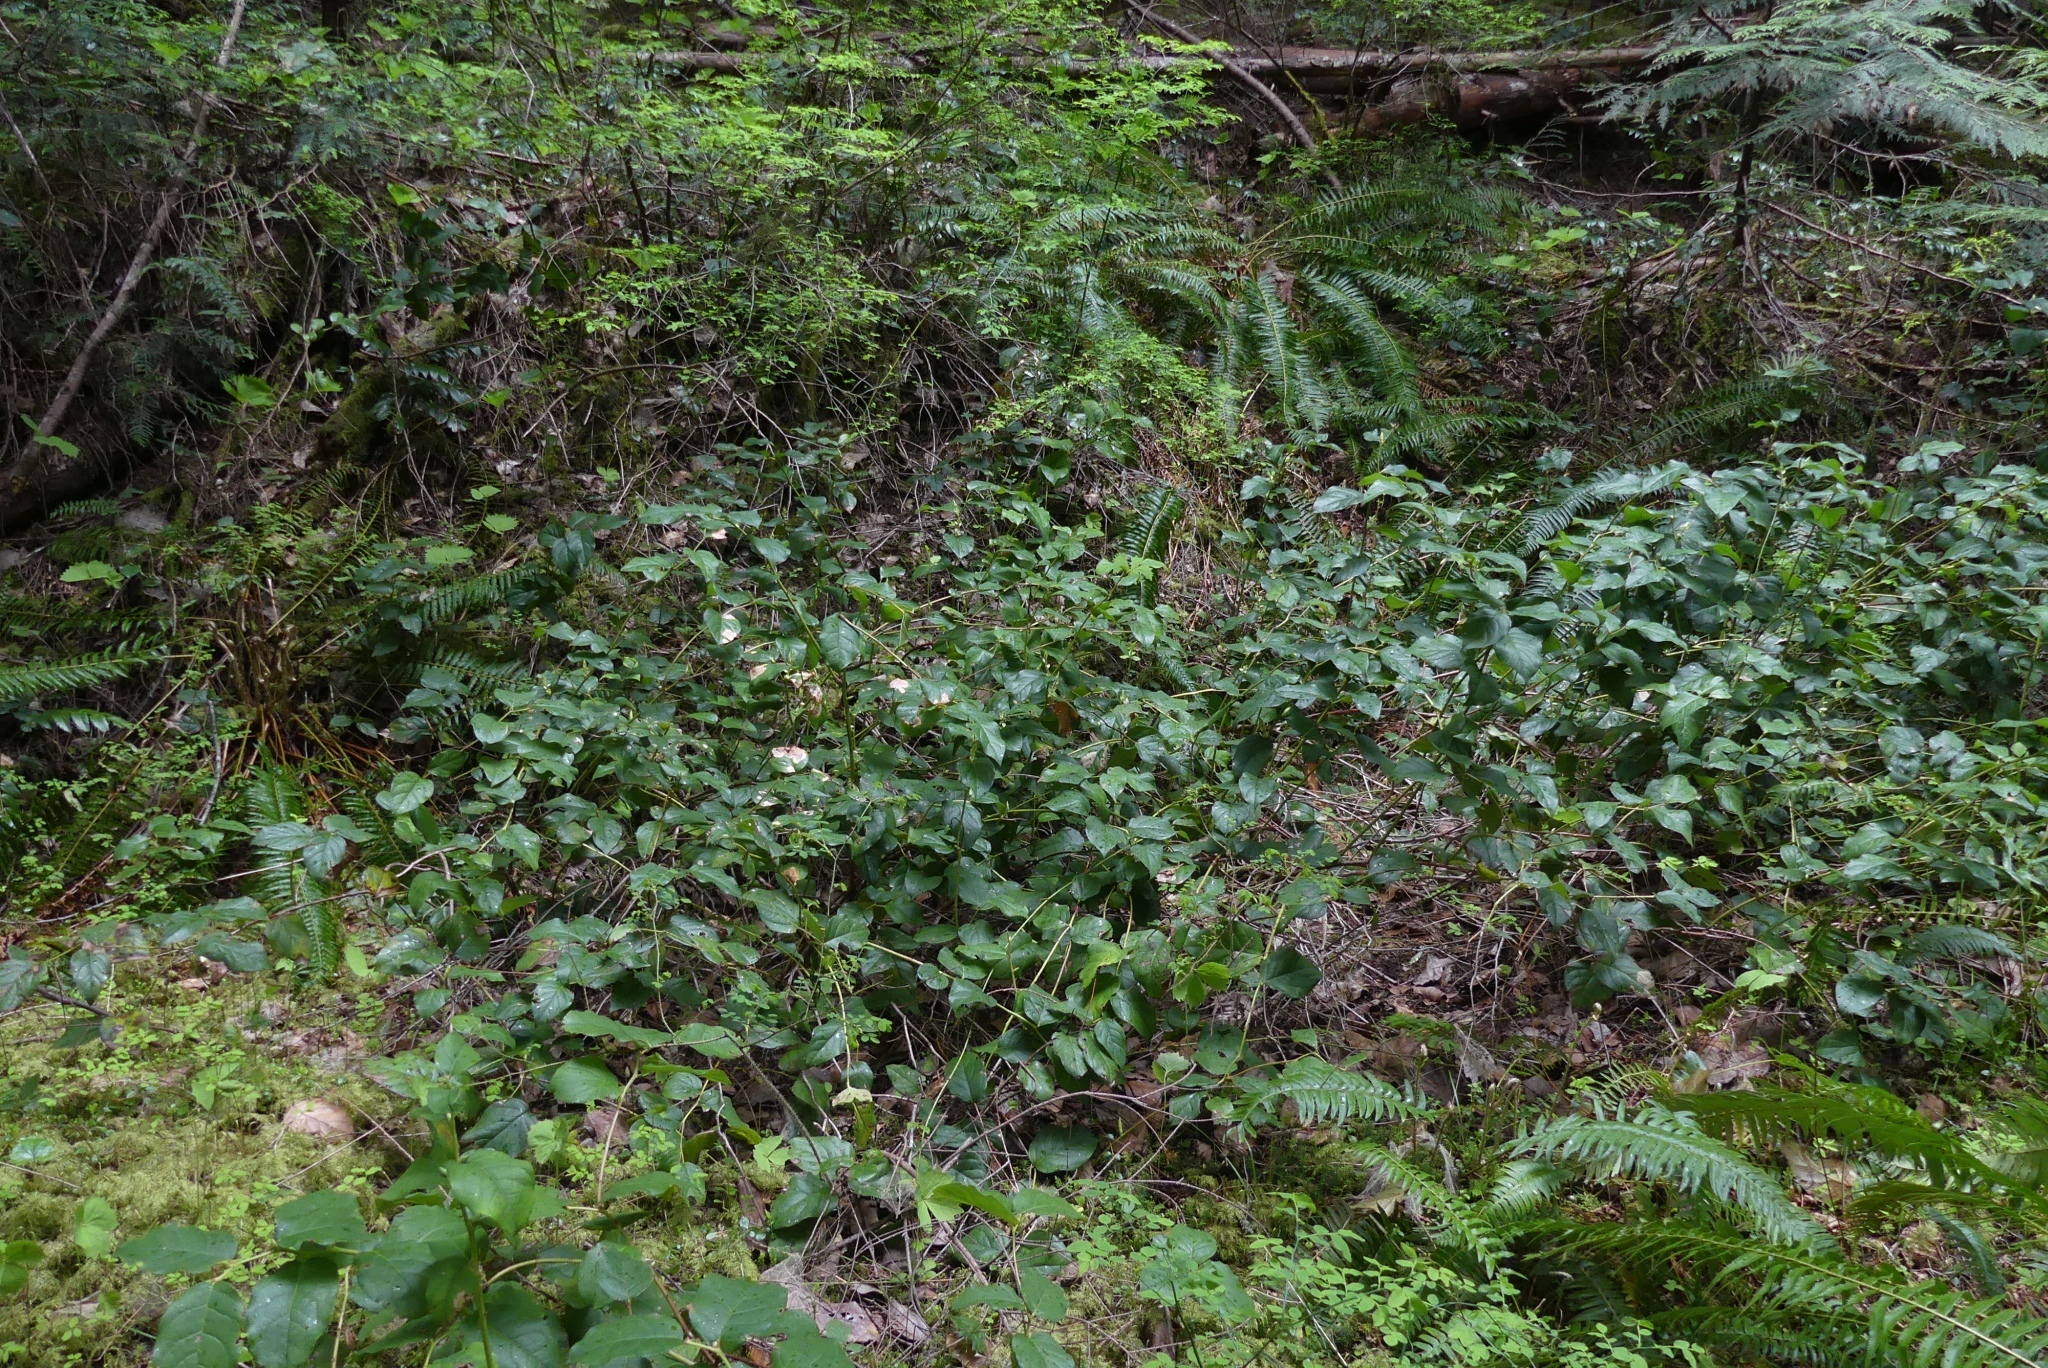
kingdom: Plantae
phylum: Tracheophyta
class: Magnoliopsida
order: Ericales
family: Ericaceae
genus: Gaultheria
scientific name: Gaultheria shallon
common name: Shallon
